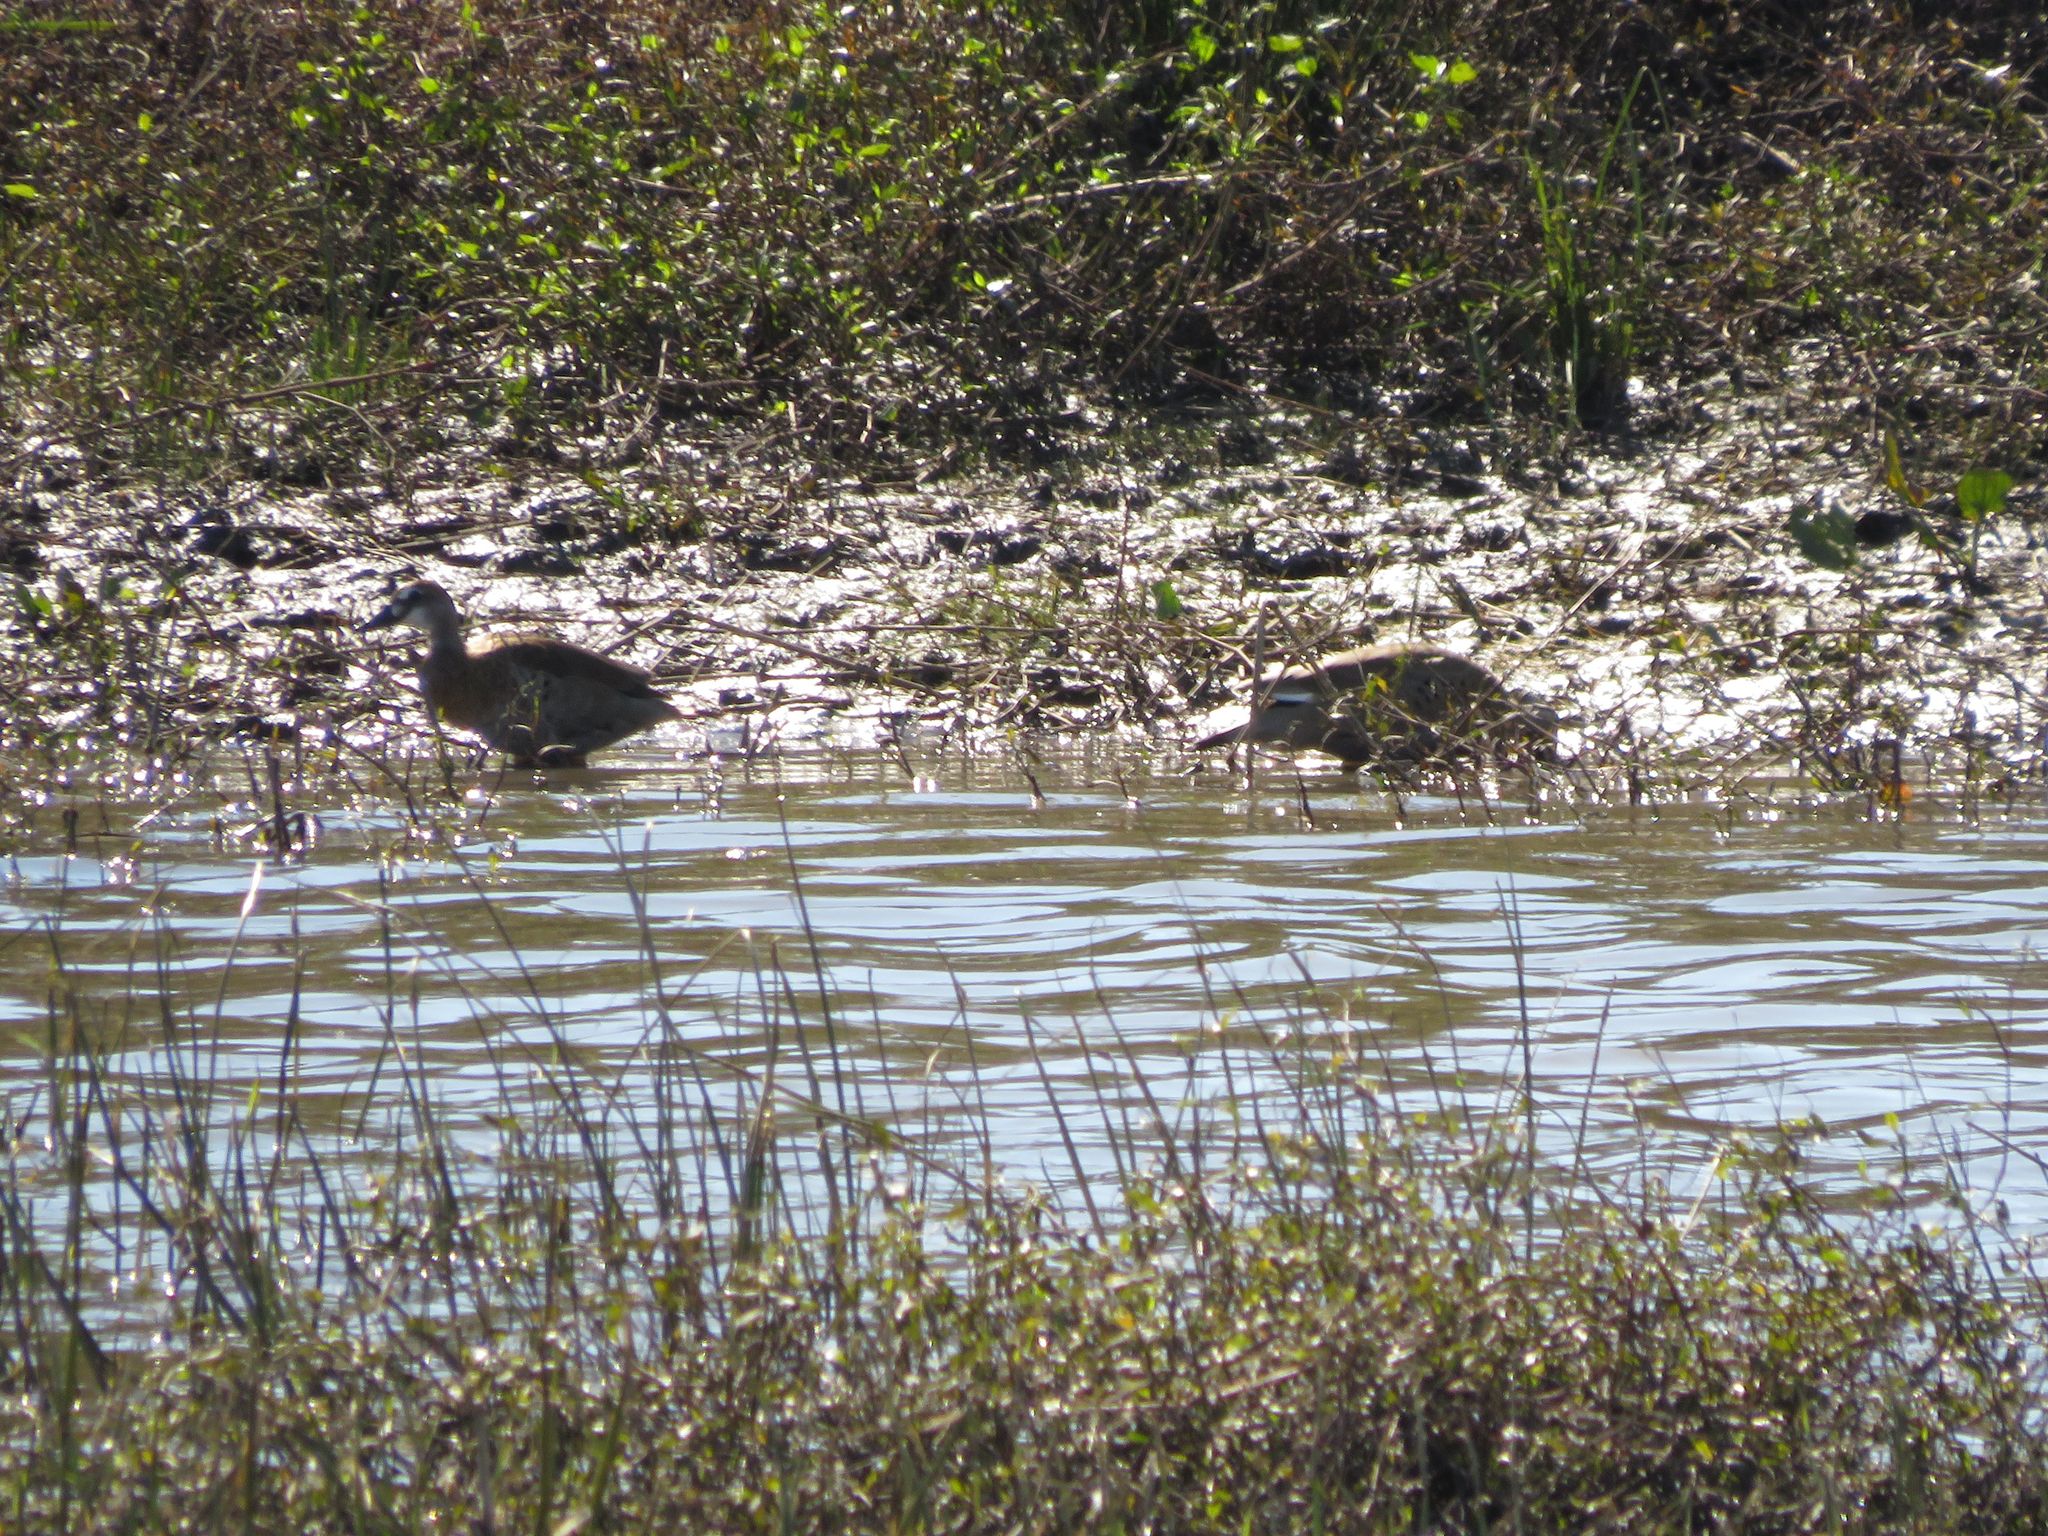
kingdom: Animalia
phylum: Chordata
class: Aves
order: Anseriformes
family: Anatidae
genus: Amazonetta
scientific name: Amazonetta brasiliensis
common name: Brazilian teal
